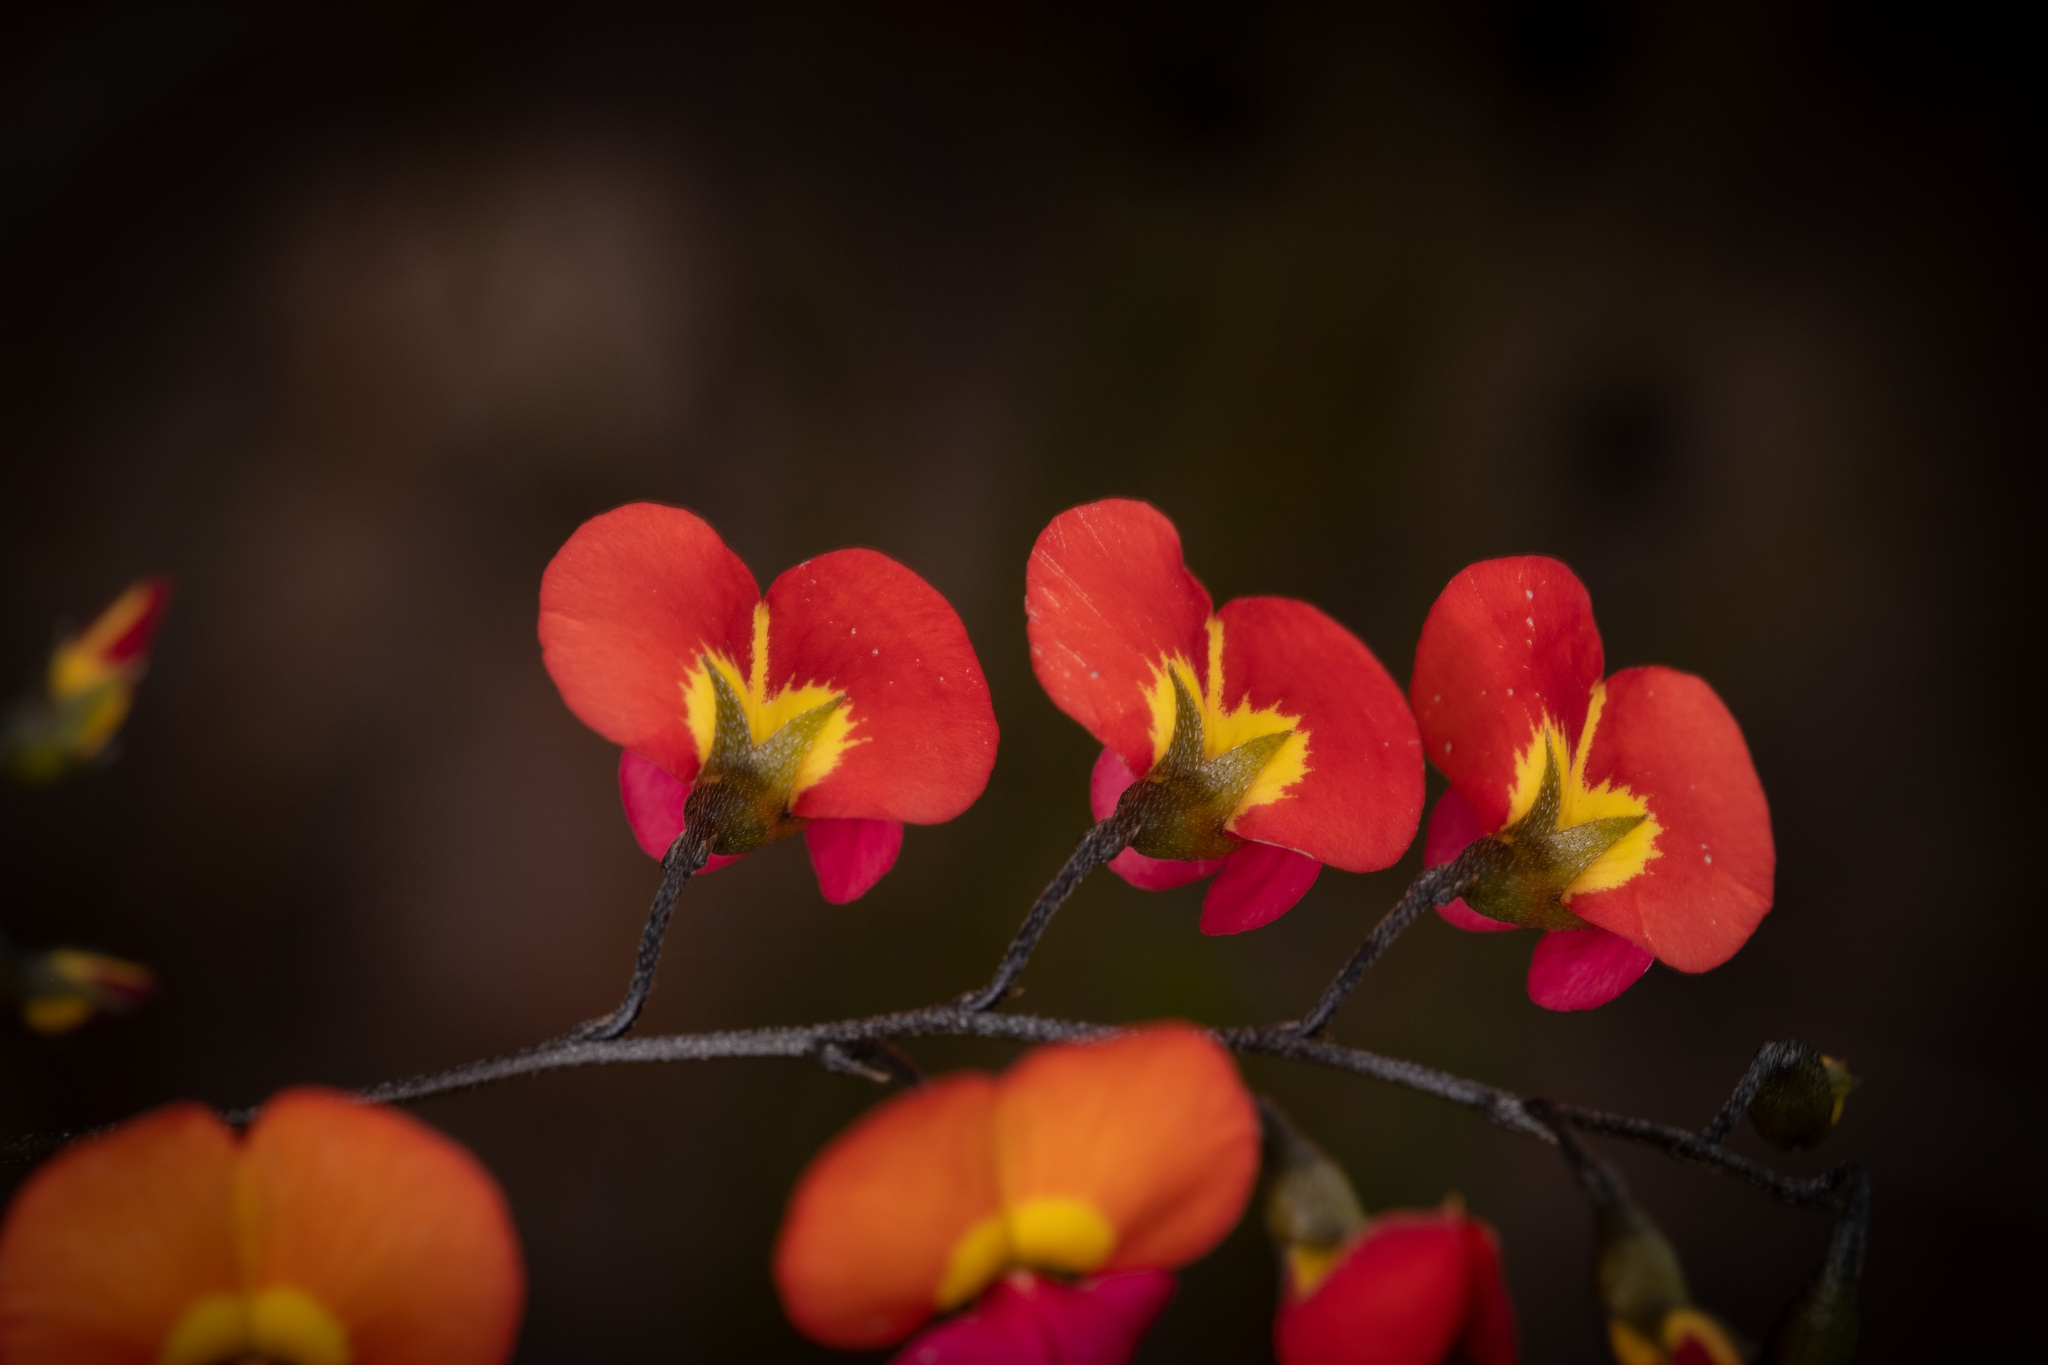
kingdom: Plantae
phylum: Tracheophyta
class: Magnoliopsida
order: Fabales
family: Fabaceae
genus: Chorizema
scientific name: Chorizema glycinifolium
